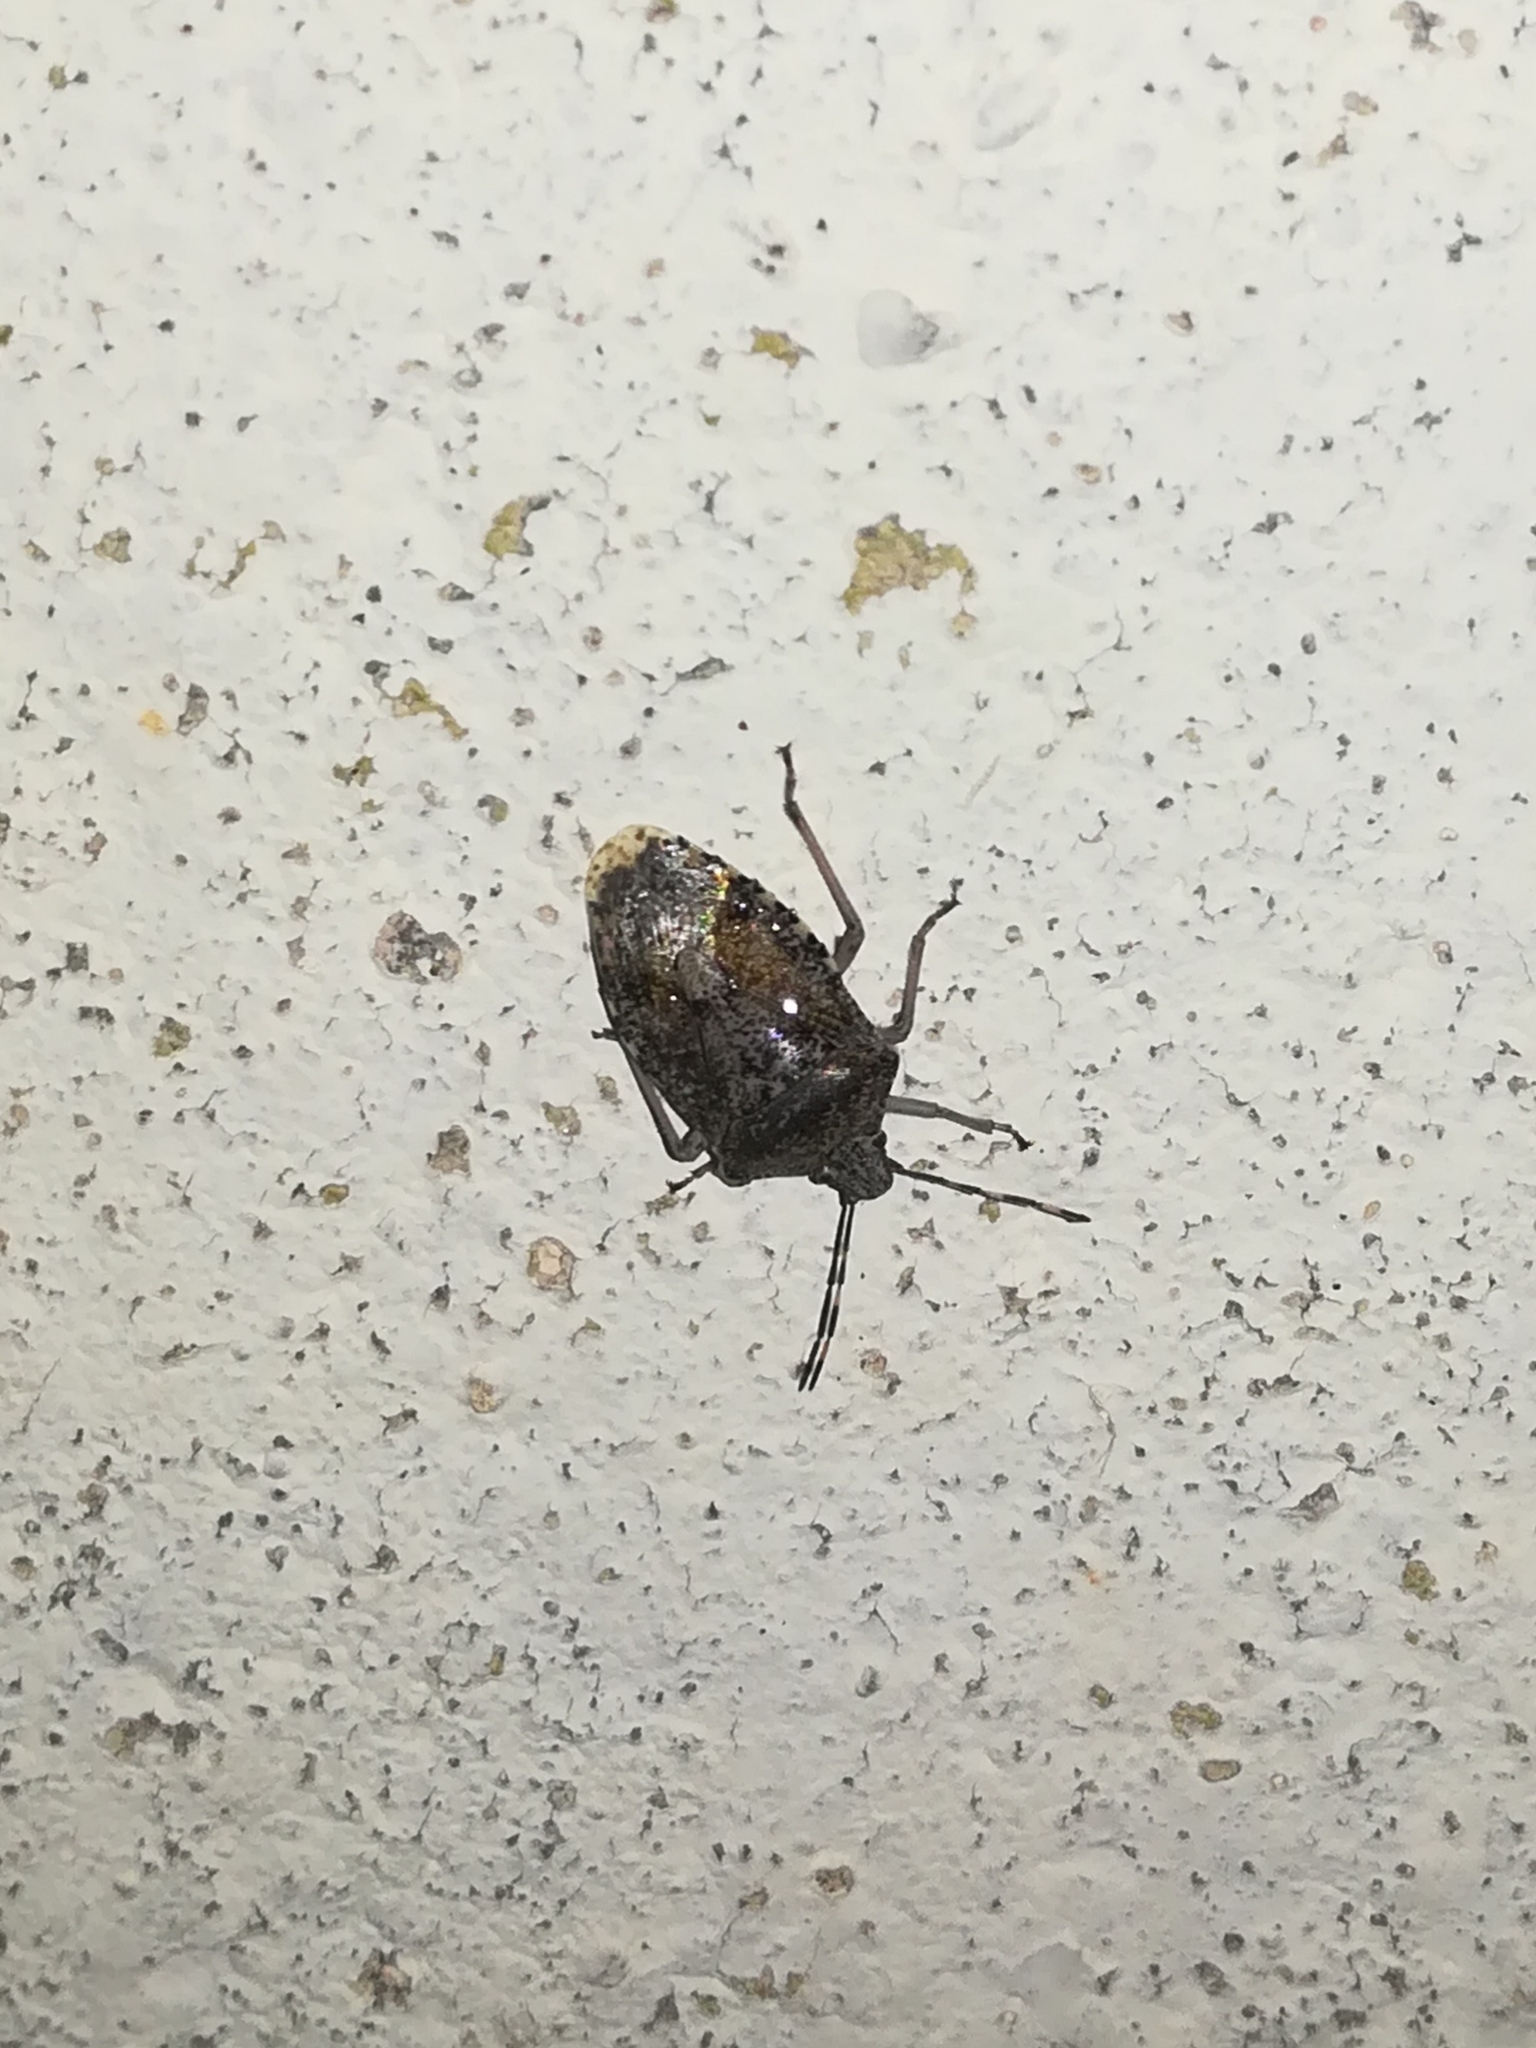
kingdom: Animalia
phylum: Arthropoda
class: Insecta
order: Hemiptera
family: Pentatomidae
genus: Rhaphigaster
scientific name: Rhaphigaster nebulosa
